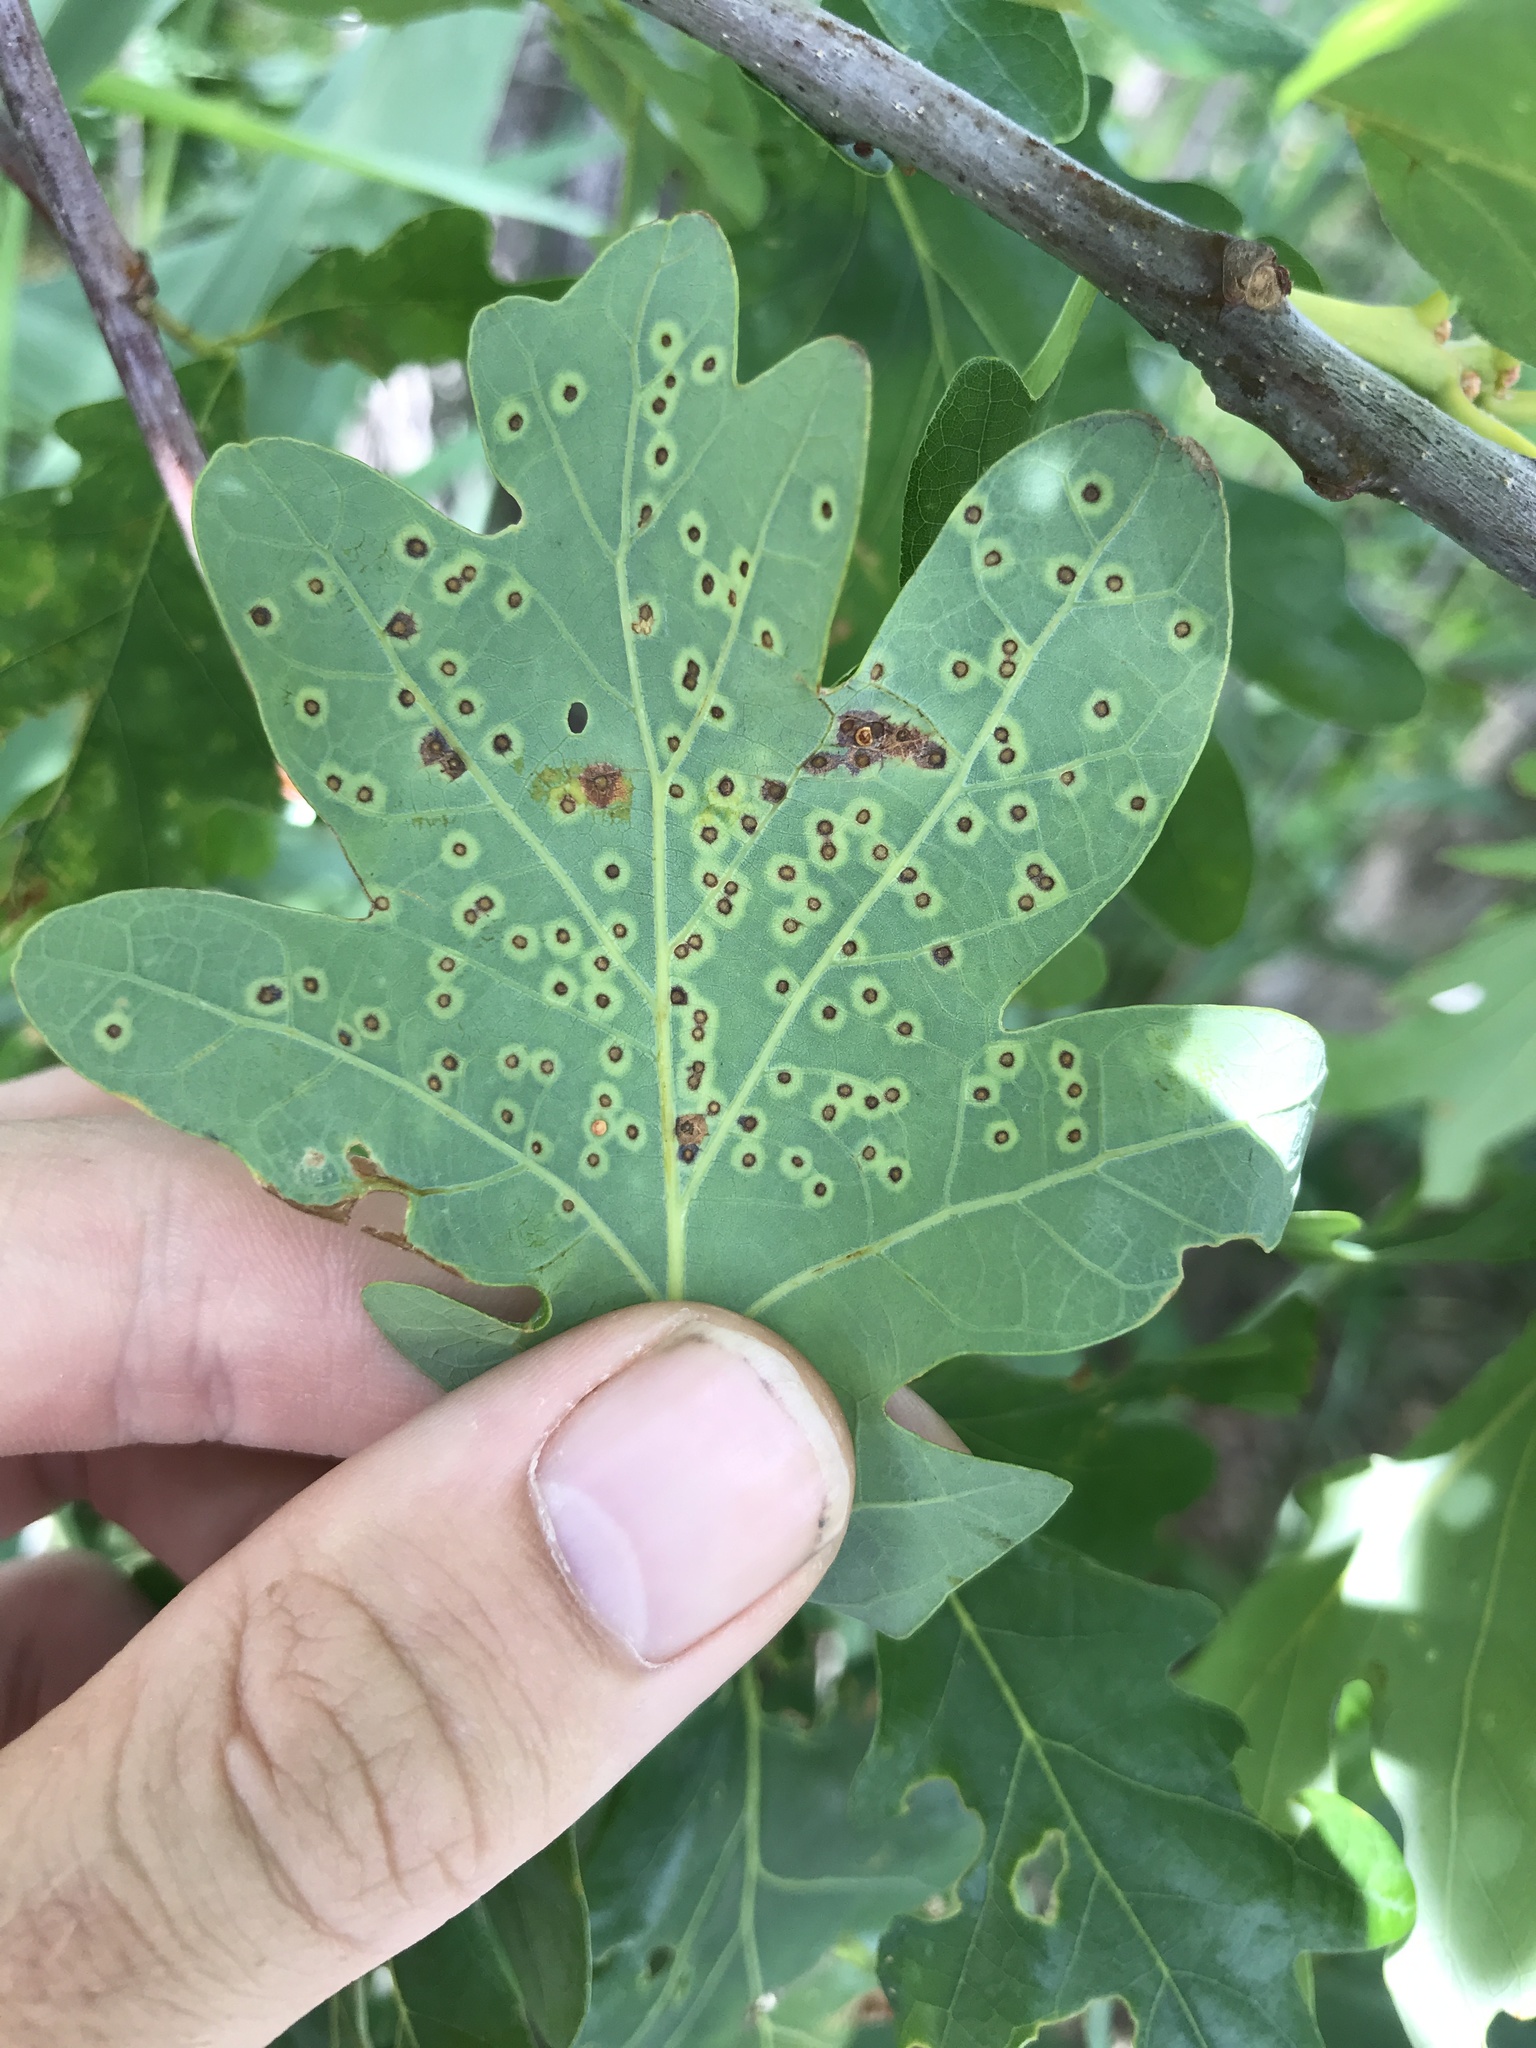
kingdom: Animalia
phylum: Arthropoda
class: Insecta
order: Hymenoptera
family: Cynipidae
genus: Neuroterus
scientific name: Neuroterus
